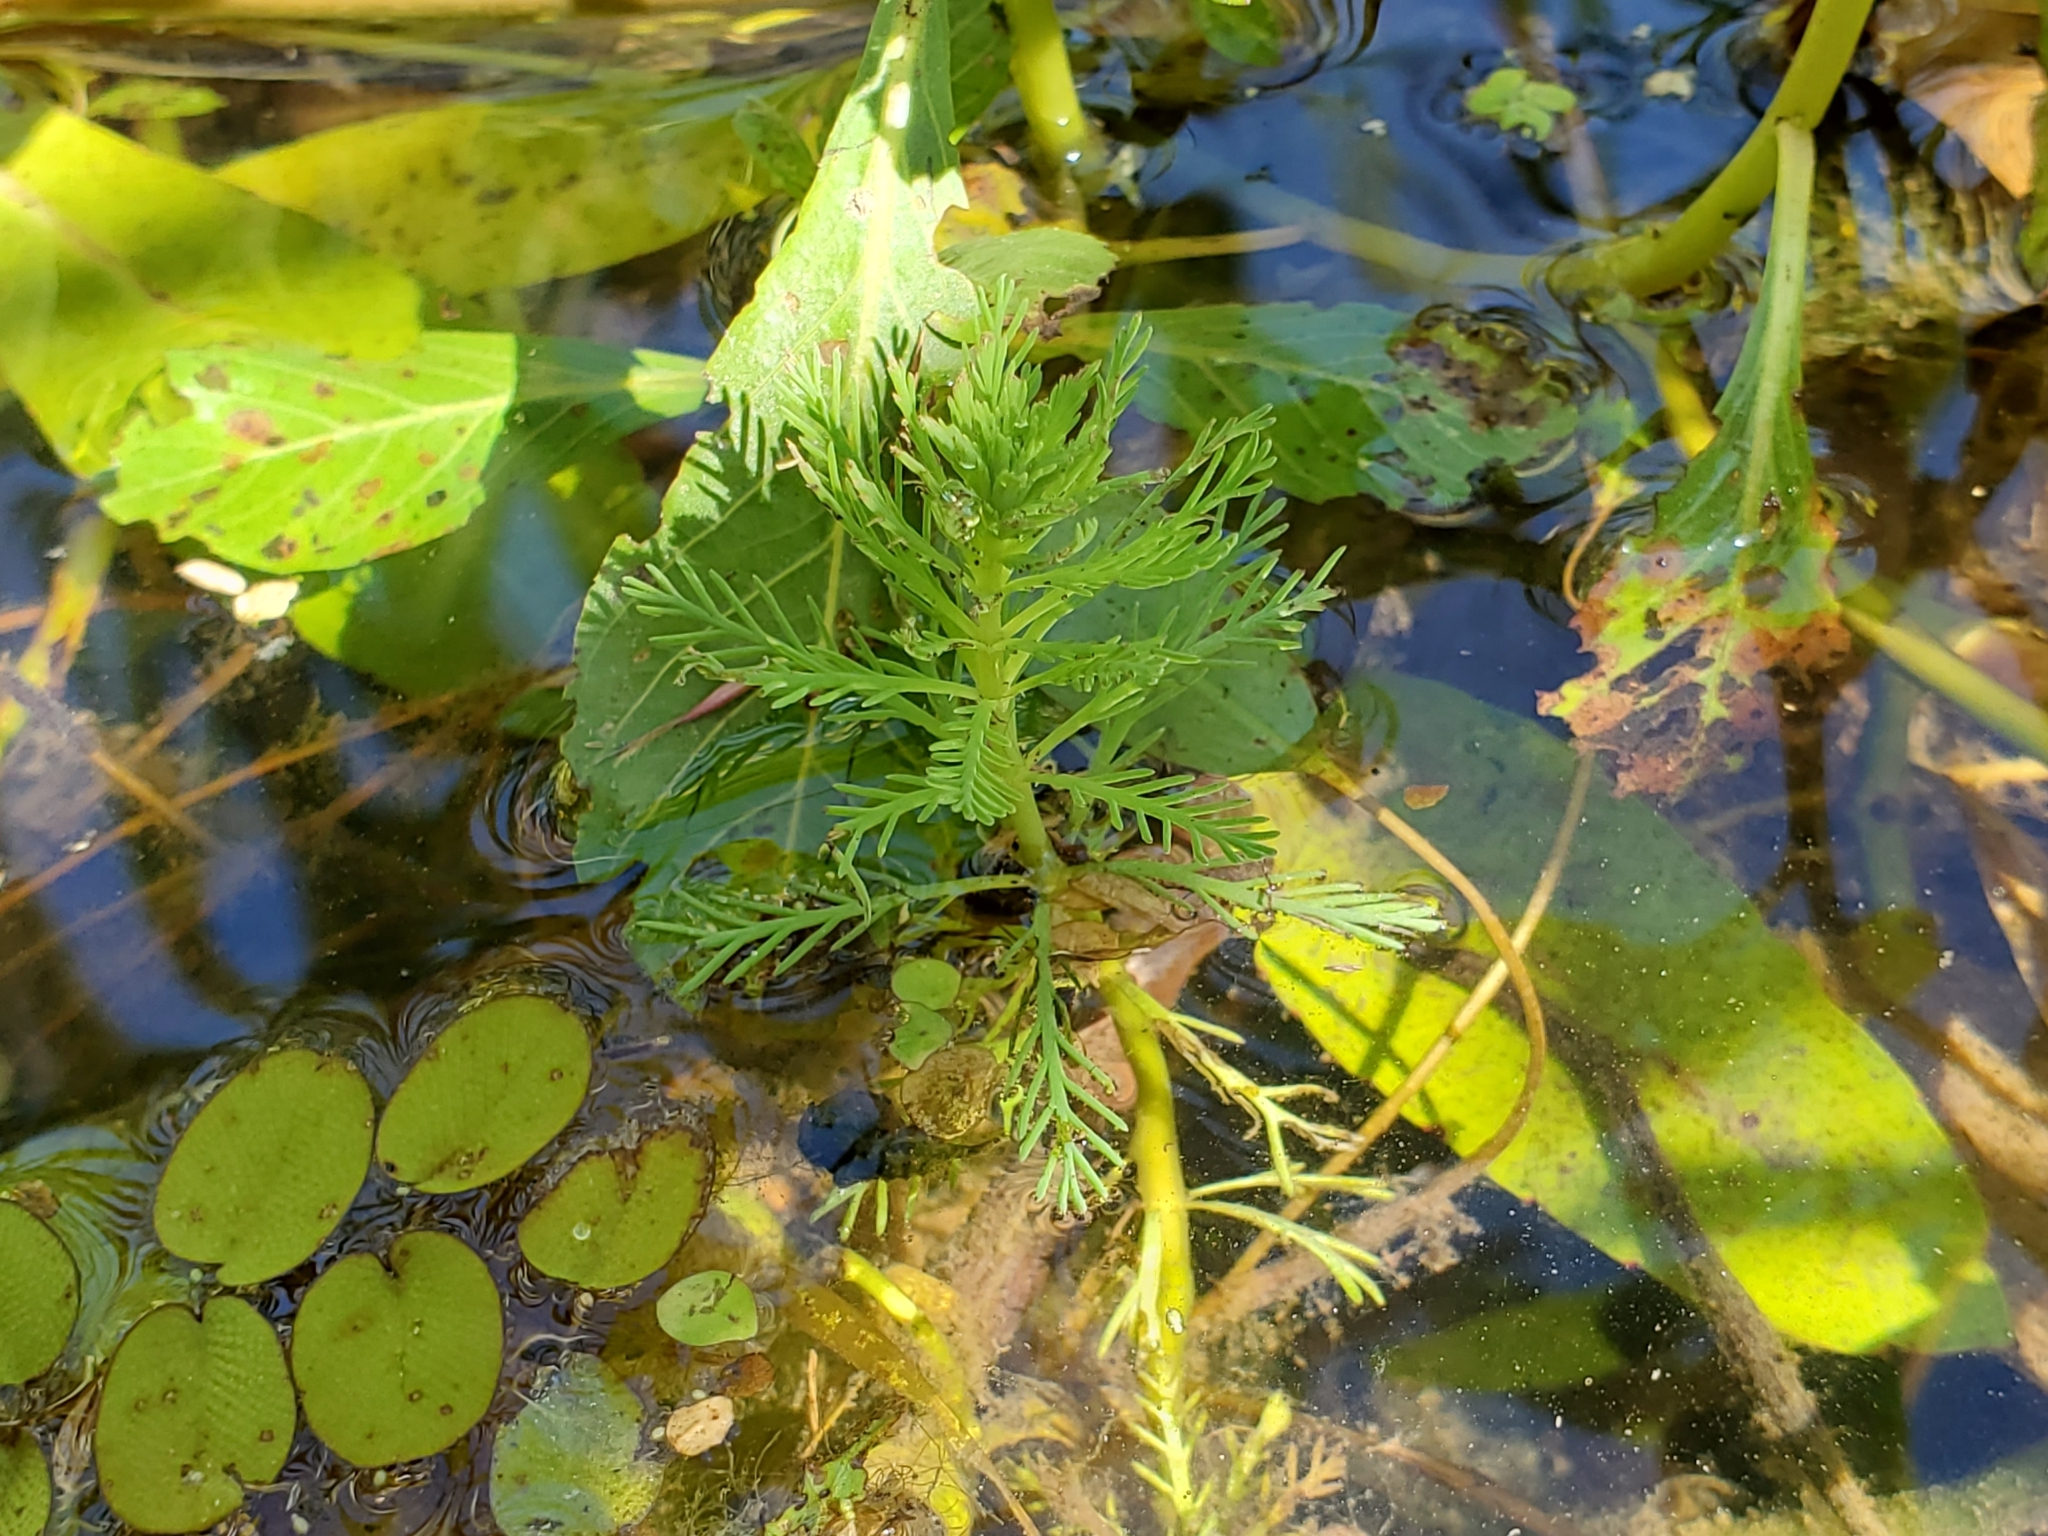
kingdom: Plantae
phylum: Tracheophyta
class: Magnoliopsida
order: Saxifragales
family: Haloragaceae
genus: Myriophyllum
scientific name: Myriophyllum aquaticum
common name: Parrot's feather
